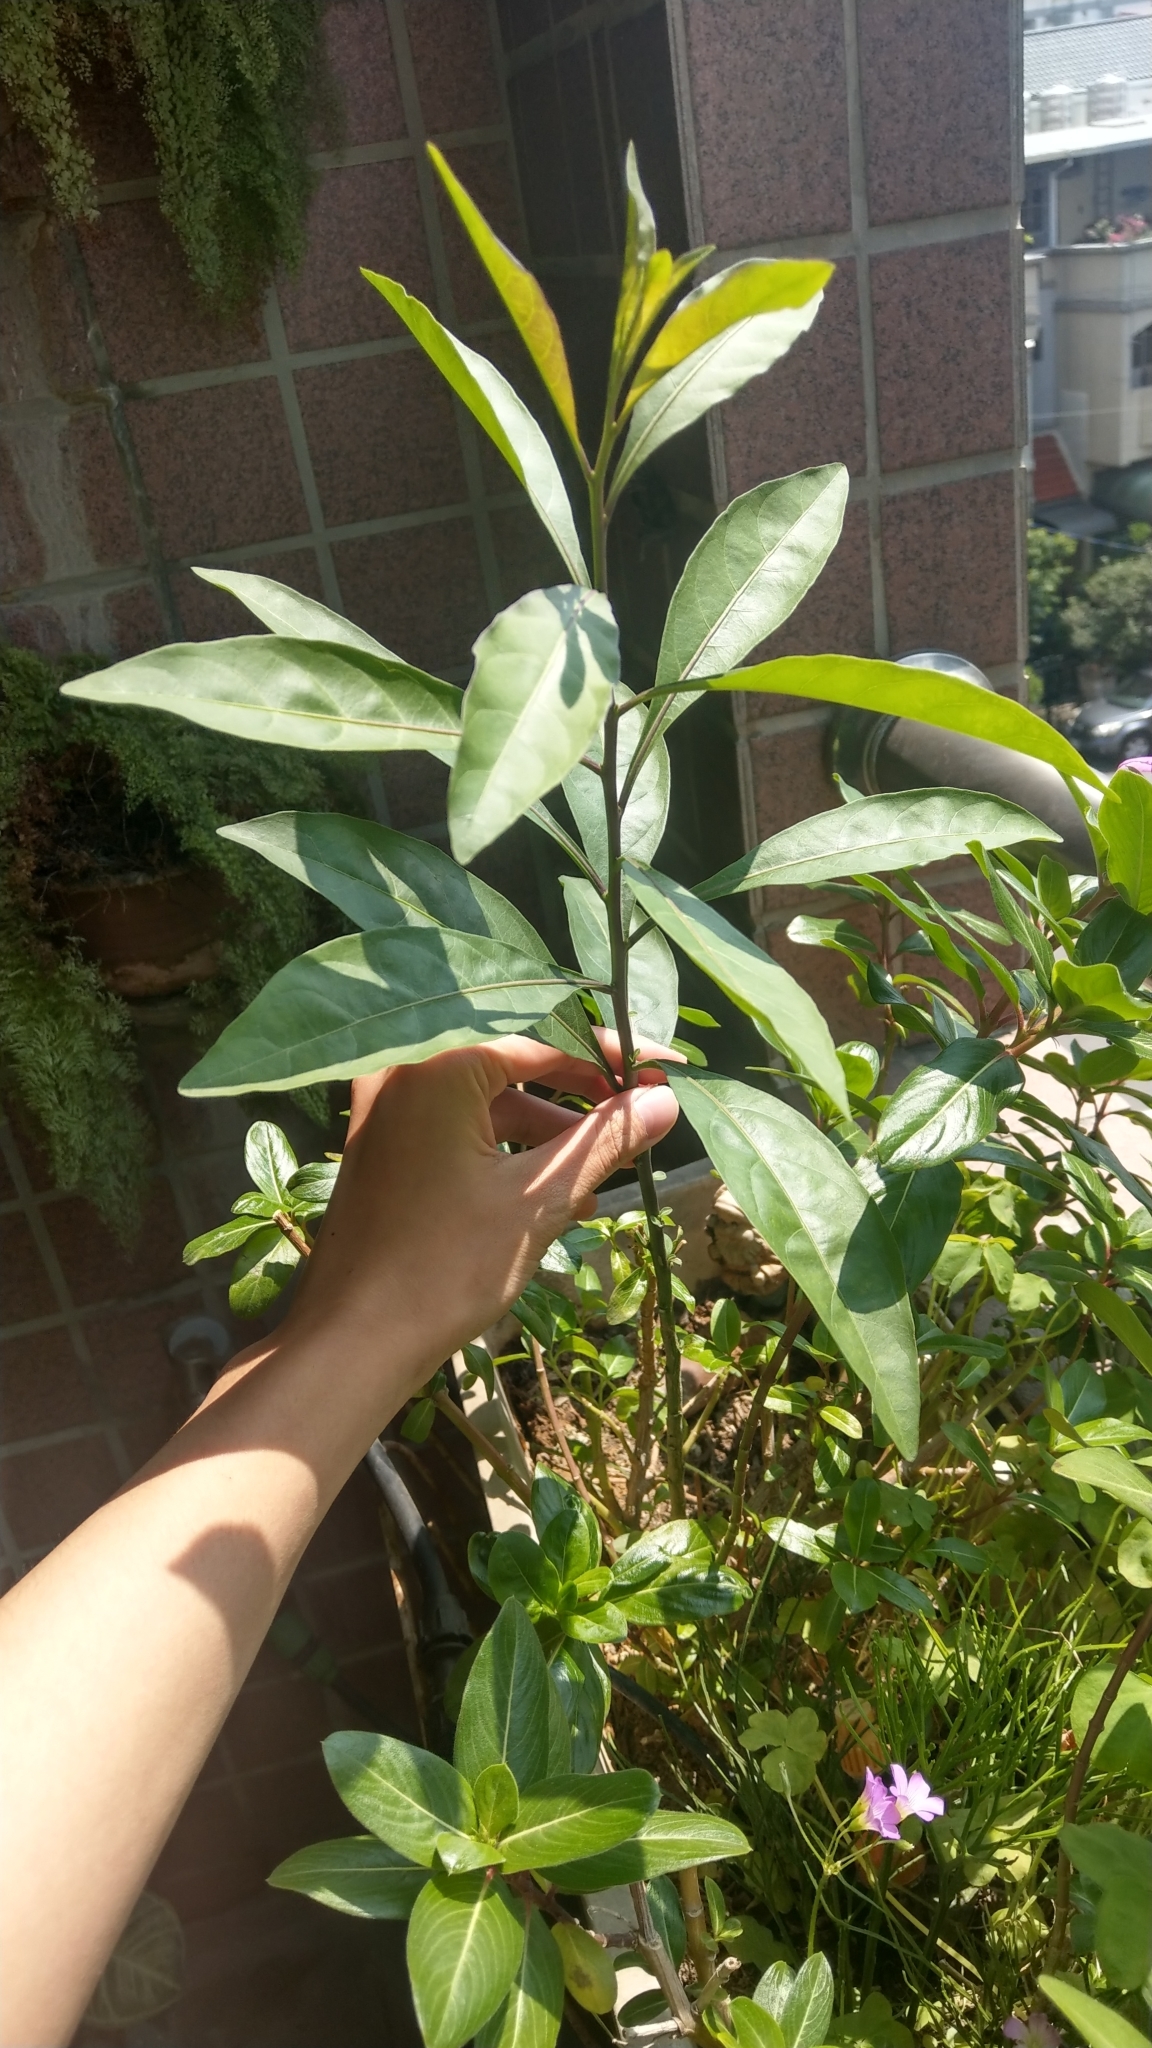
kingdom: Plantae
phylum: Tracheophyta
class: Magnoliopsida
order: Solanales
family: Solanaceae
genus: Solanum
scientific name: Solanum diphyllum
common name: Twoleaf nightshade
